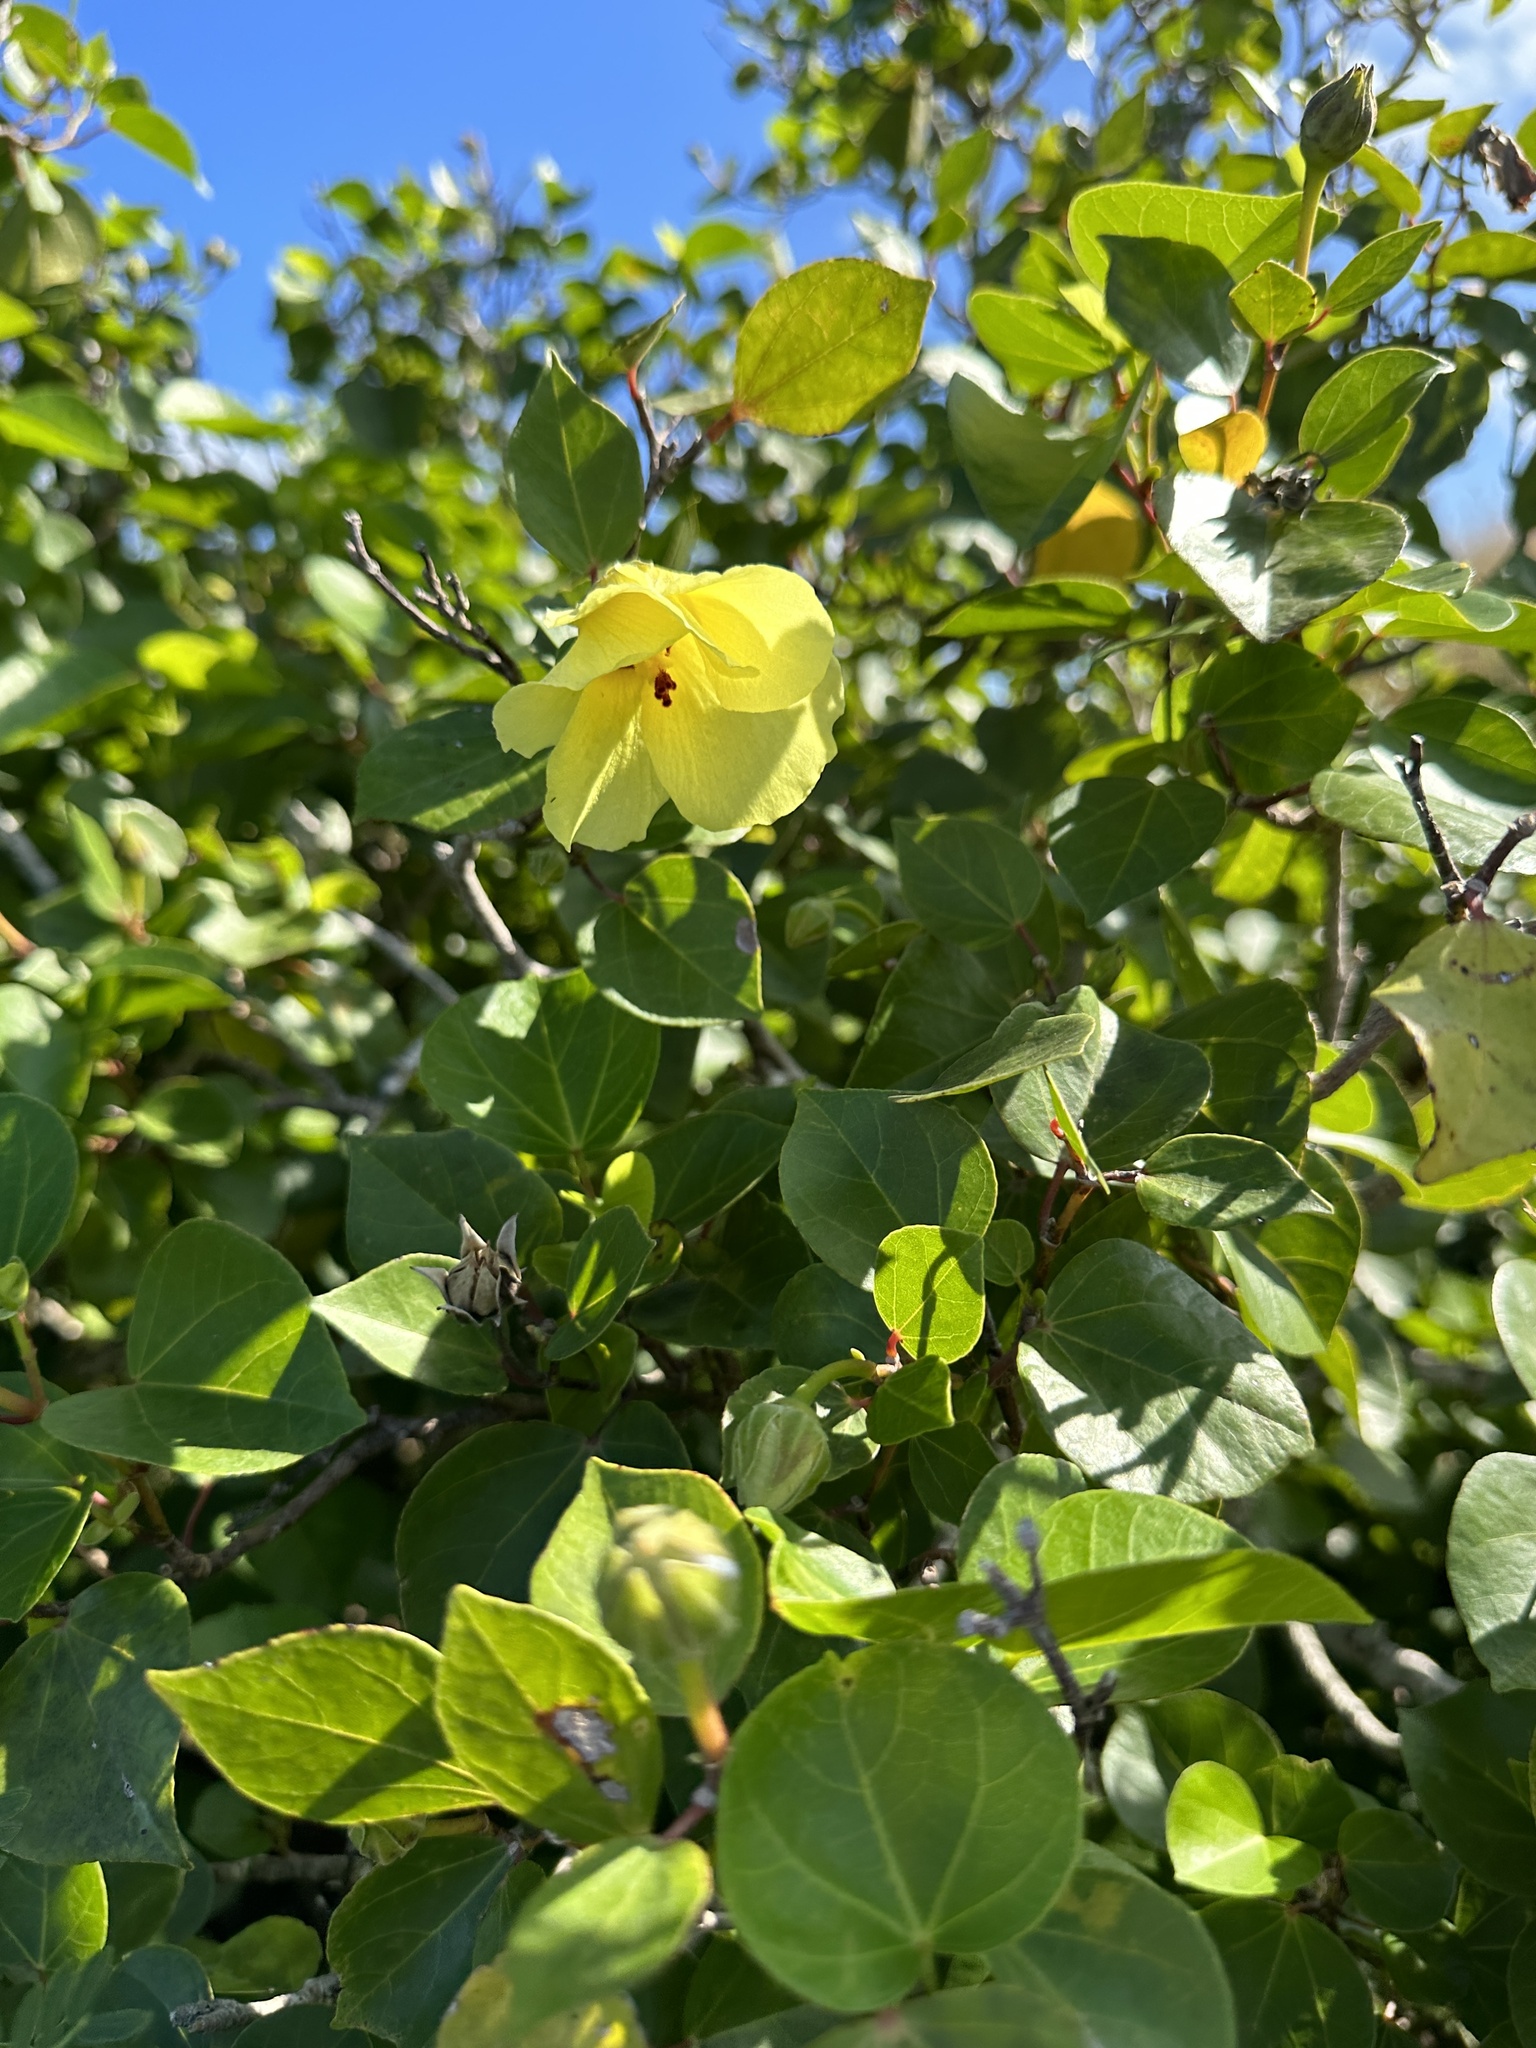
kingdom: Plantae
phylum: Tracheophyta
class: Magnoliopsida
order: Malvales
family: Malvaceae
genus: Talipariti
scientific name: Talipariti glabrum
